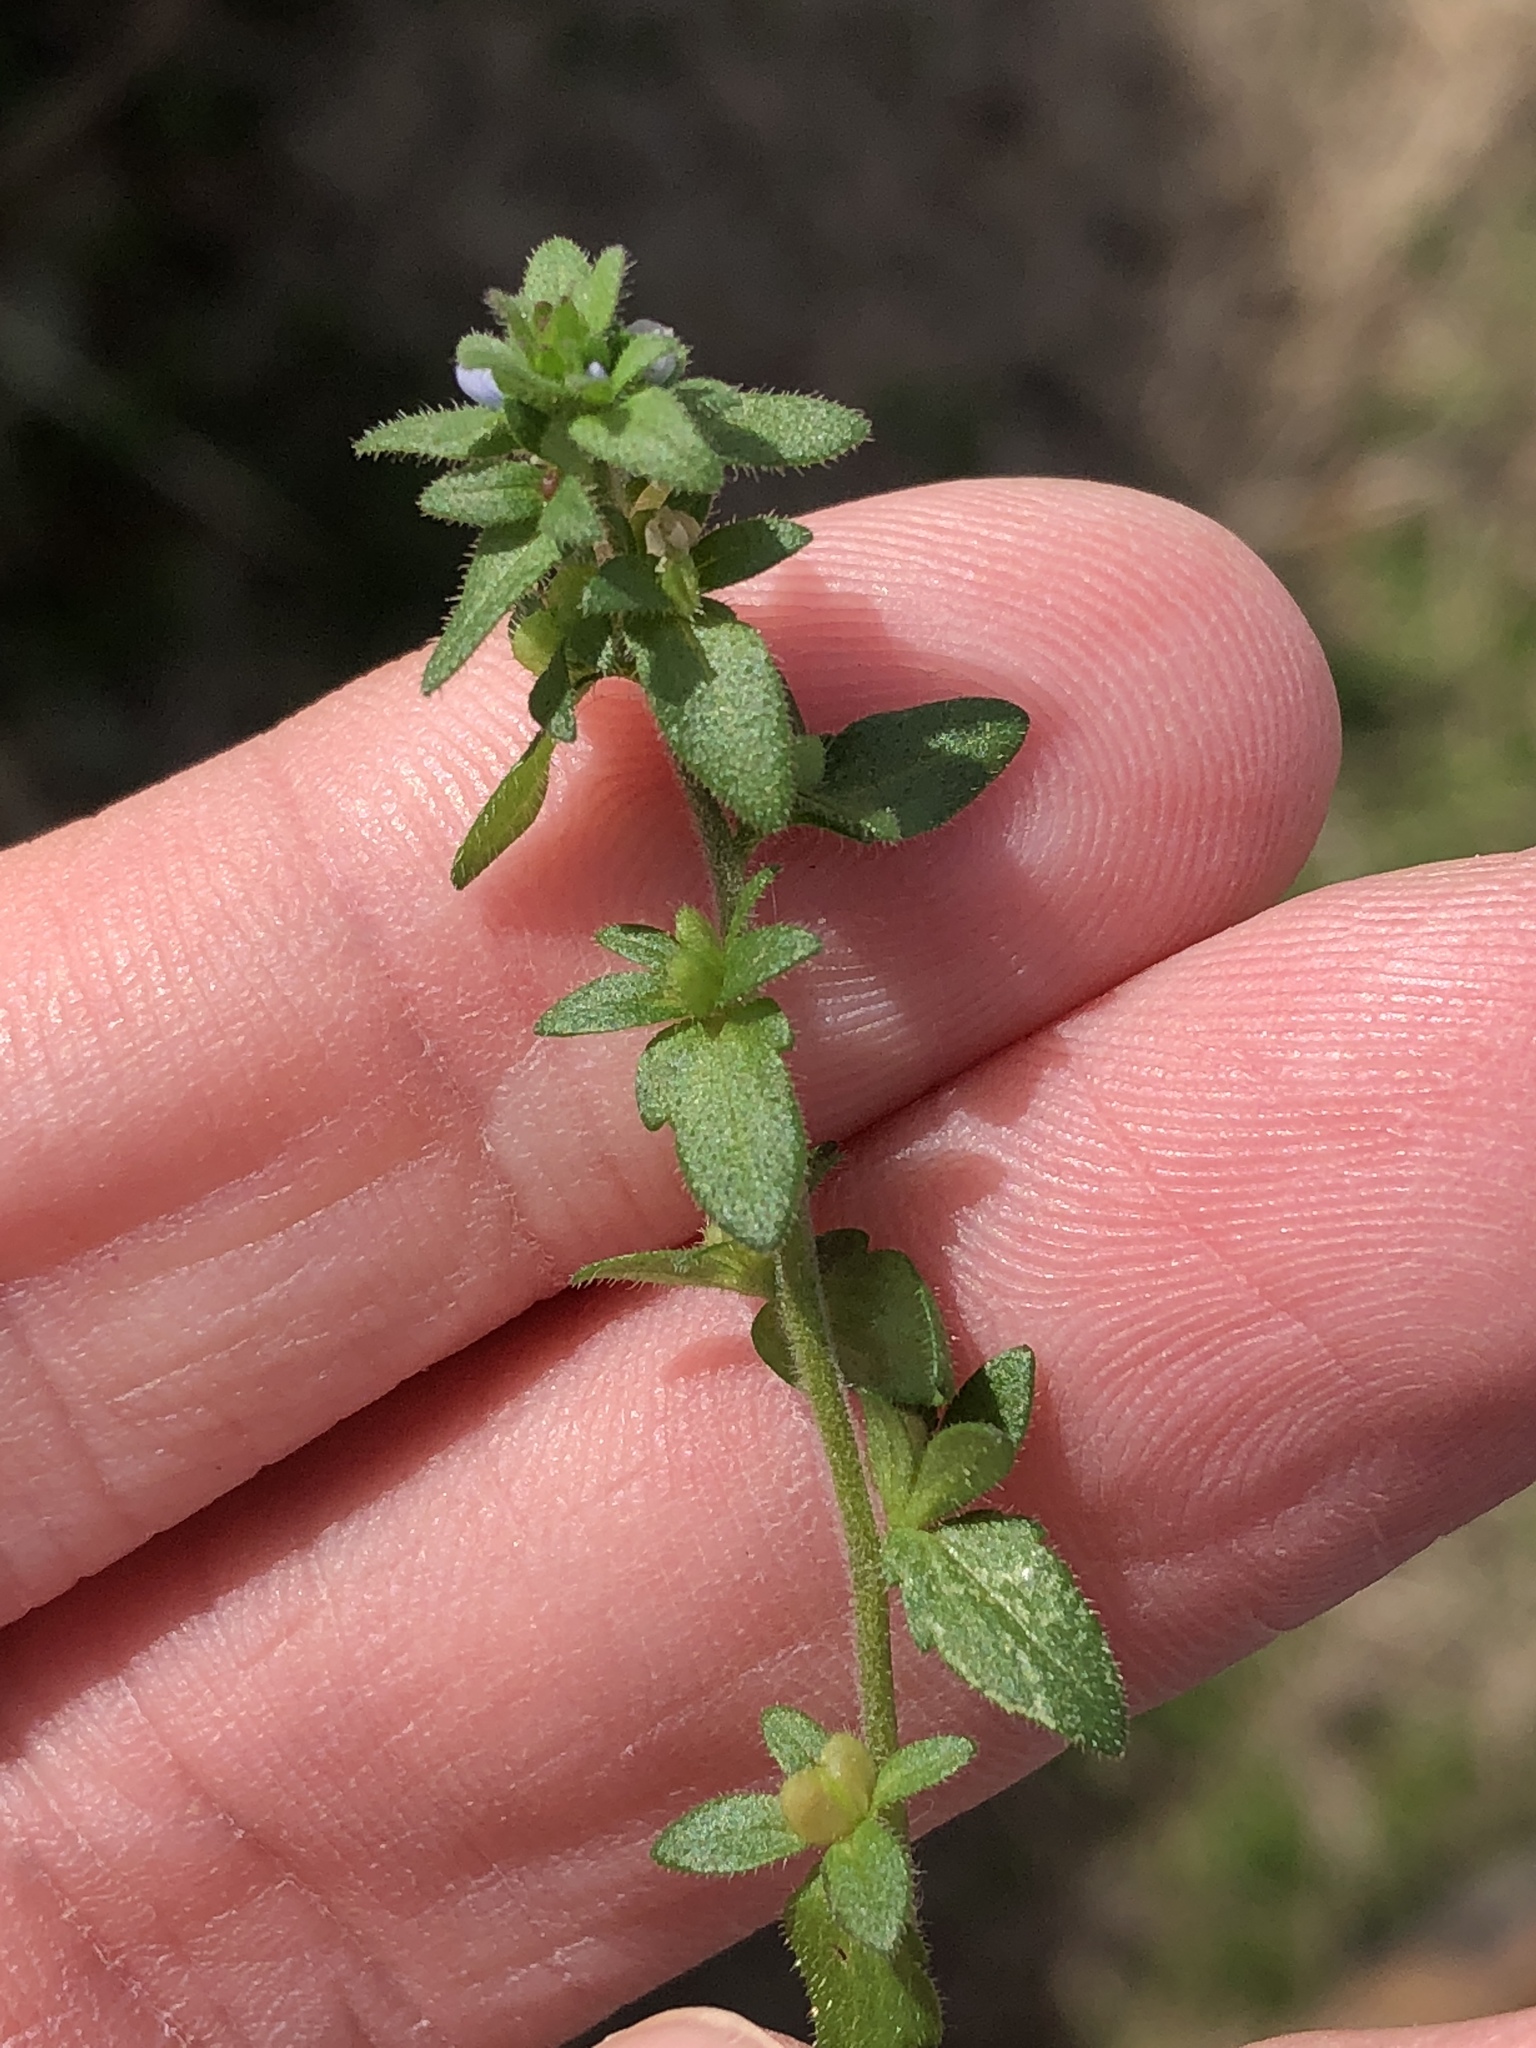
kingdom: Plantae
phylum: Tracheophyta
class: Magnoliopsida
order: Lamiales
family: Plantaginaceae
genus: Veronica
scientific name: Veronica arvensis
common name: Corn speedwell
